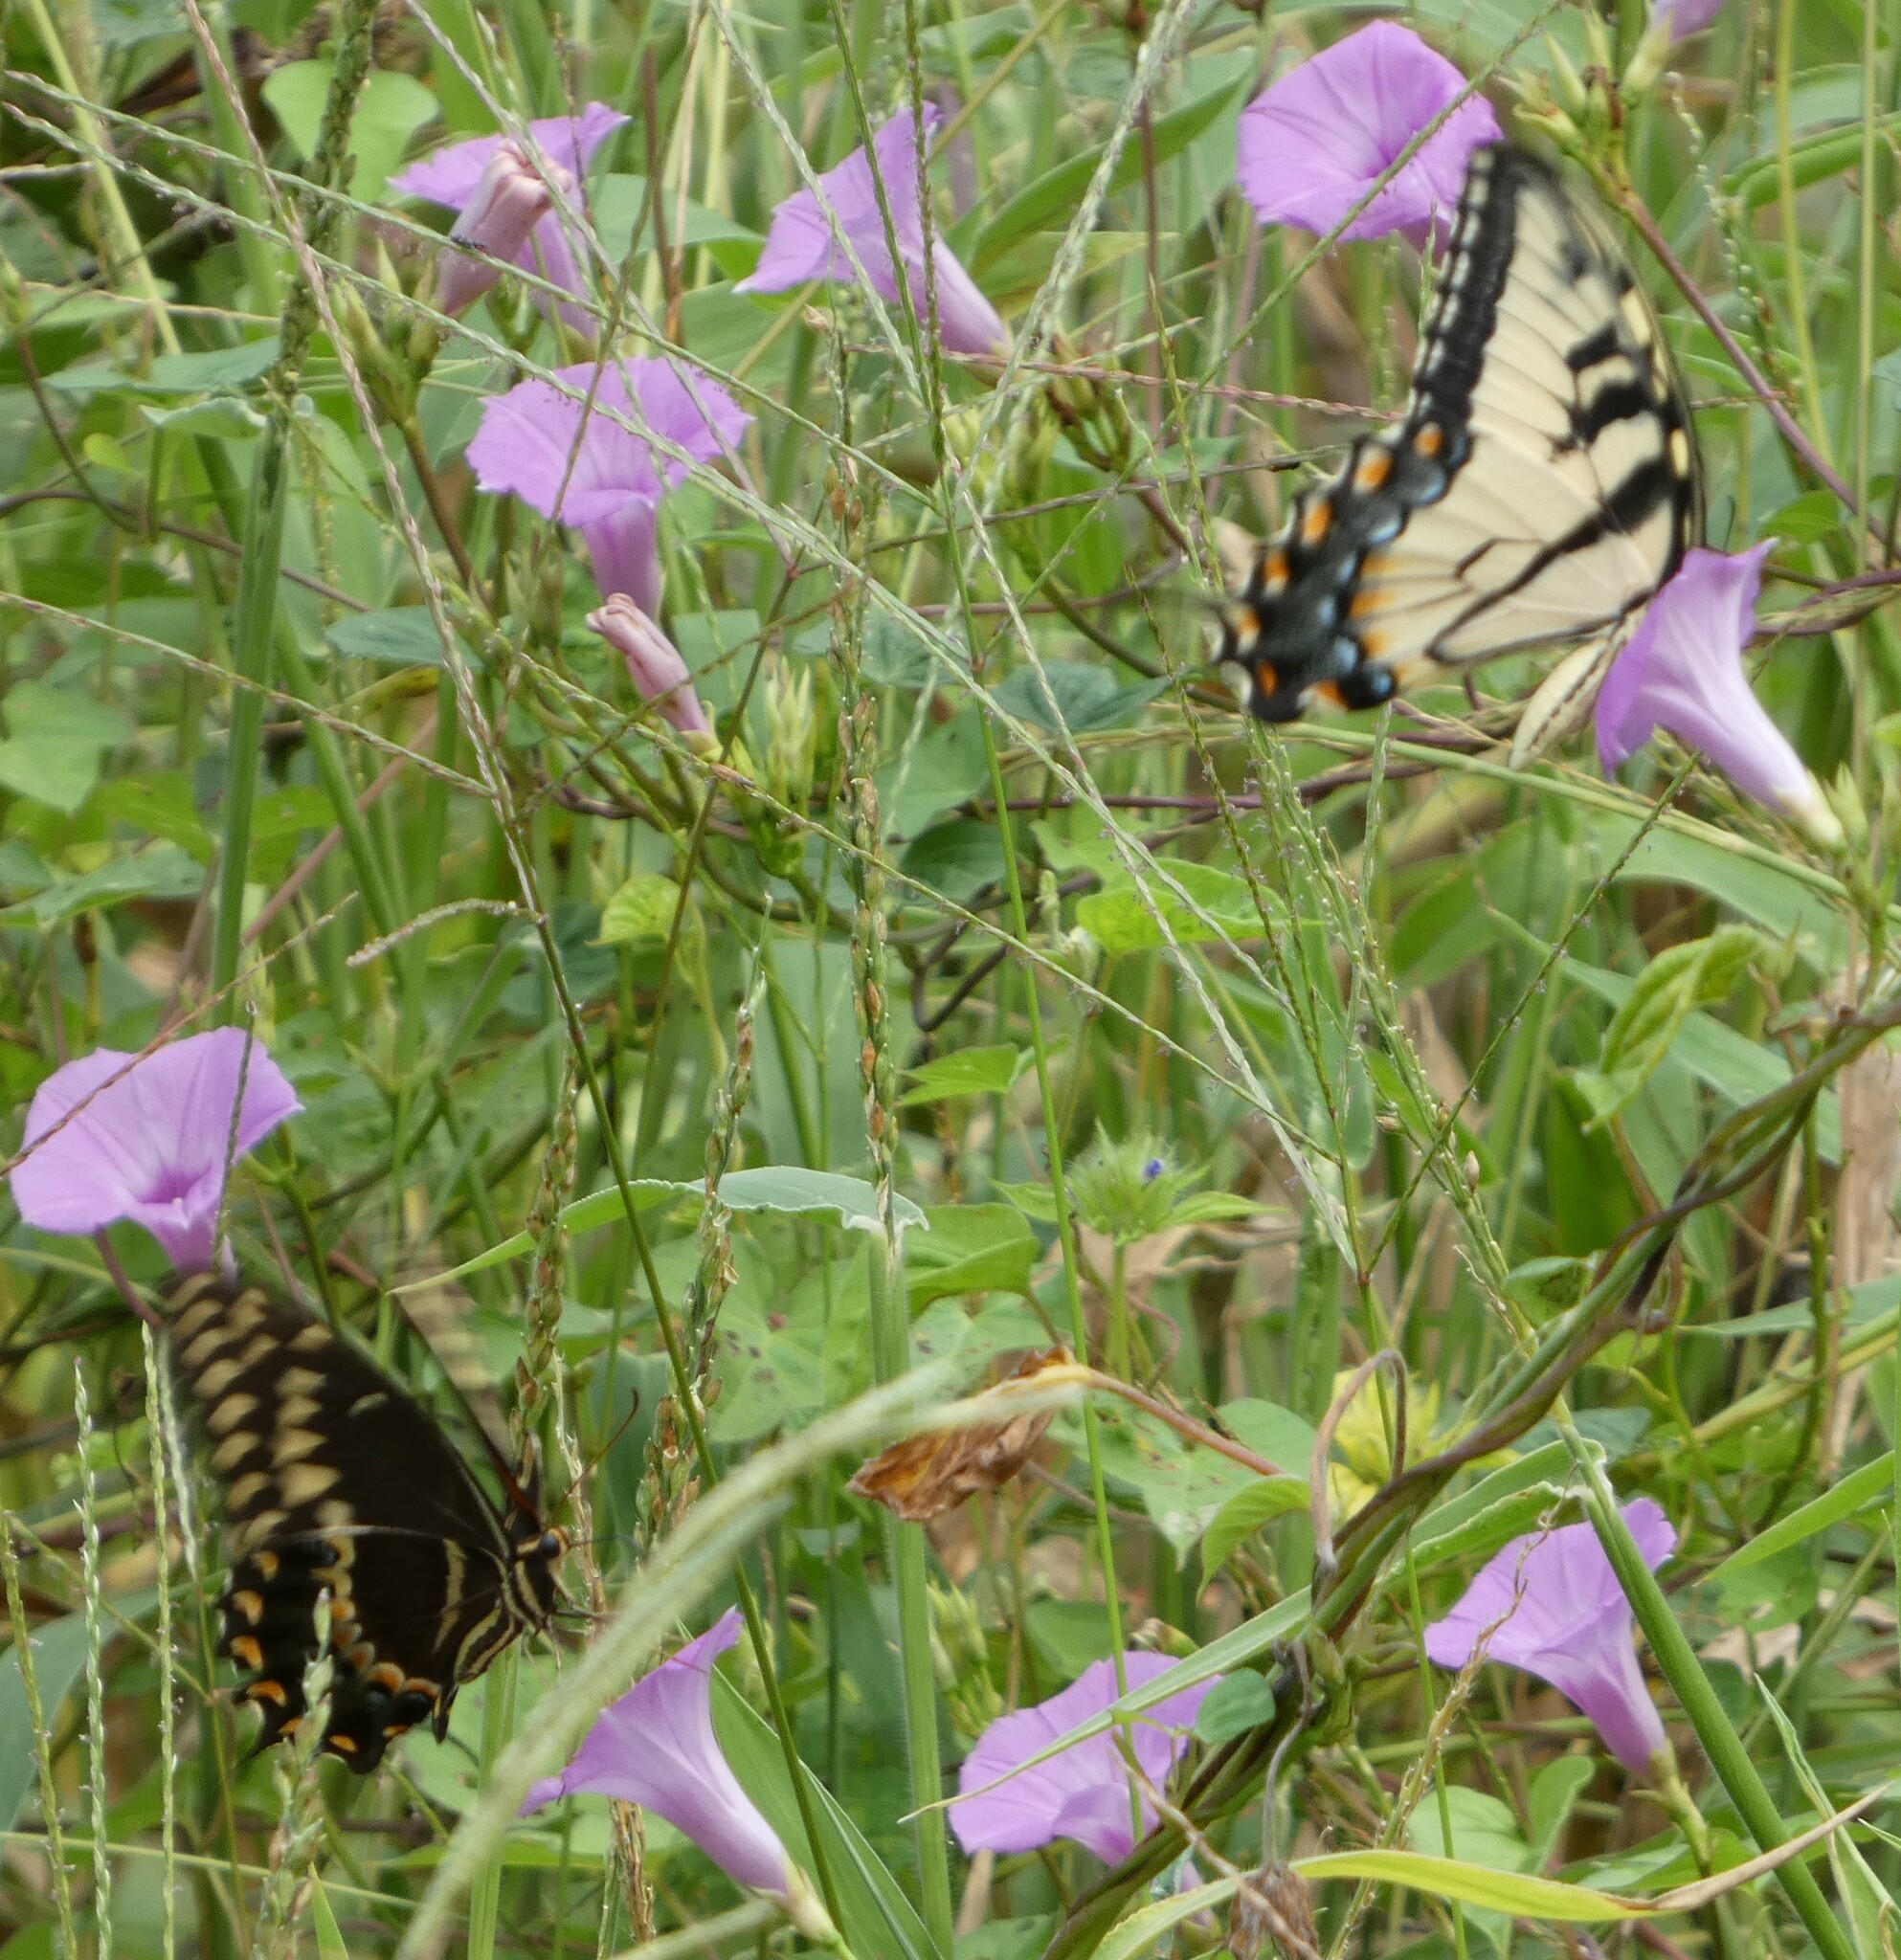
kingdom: Animalia
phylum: Arthropoda
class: Insecta
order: Lepidoptera
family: Papilionidae
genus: Papilio
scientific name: Papilio glaucus
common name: Tiger swallowtail
